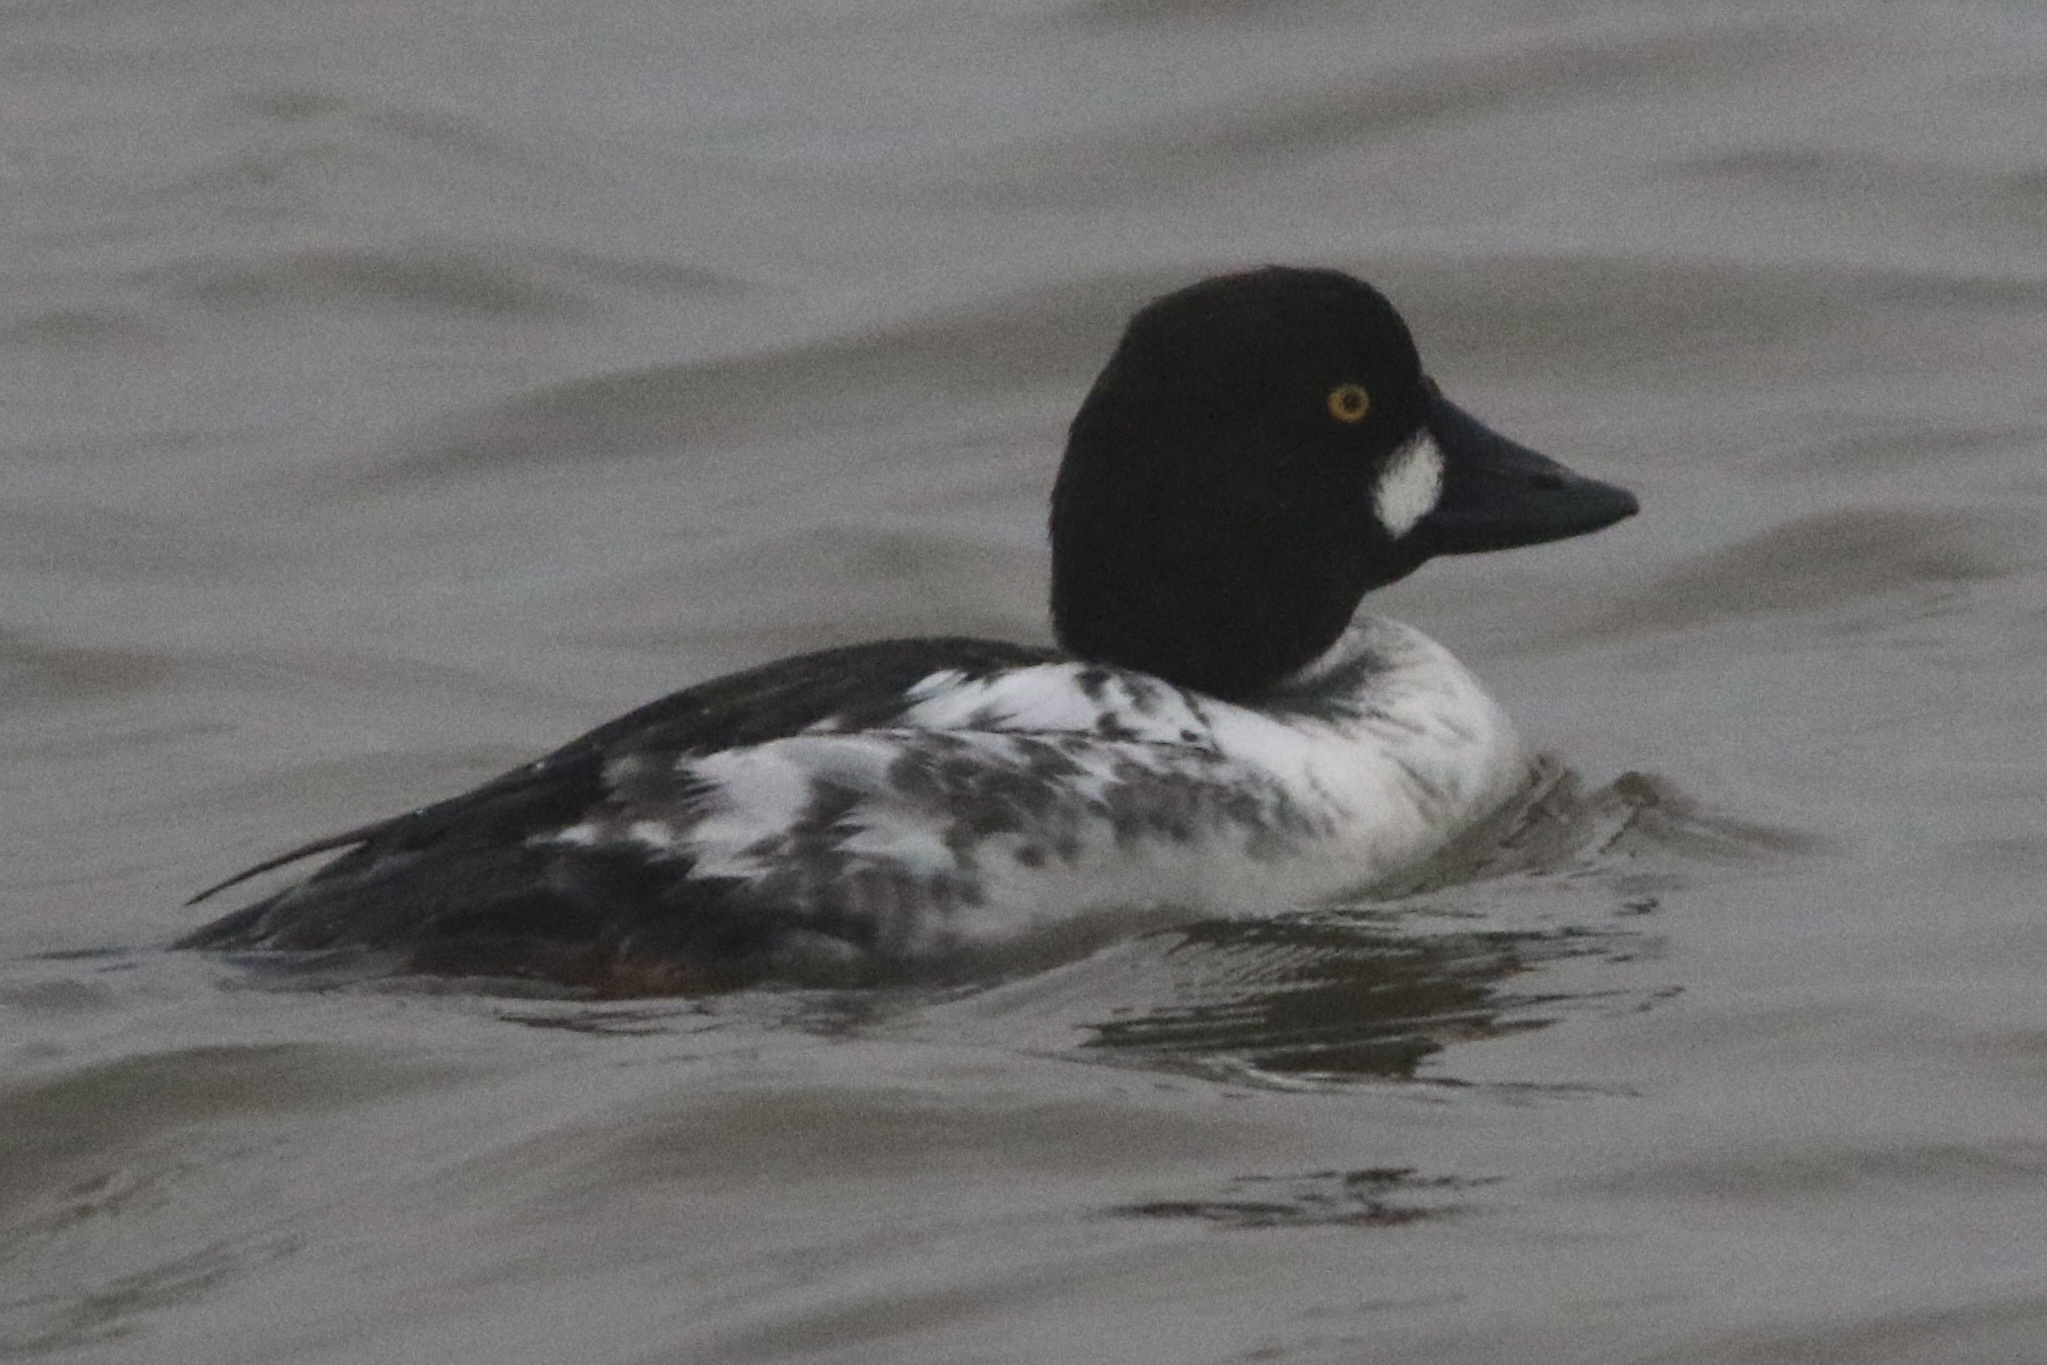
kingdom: Animalia
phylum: Chordata
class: Aves
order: Anseriformes
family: Anatidae
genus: Bucephala
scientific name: Bucephala clangula
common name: Common goldeneye
